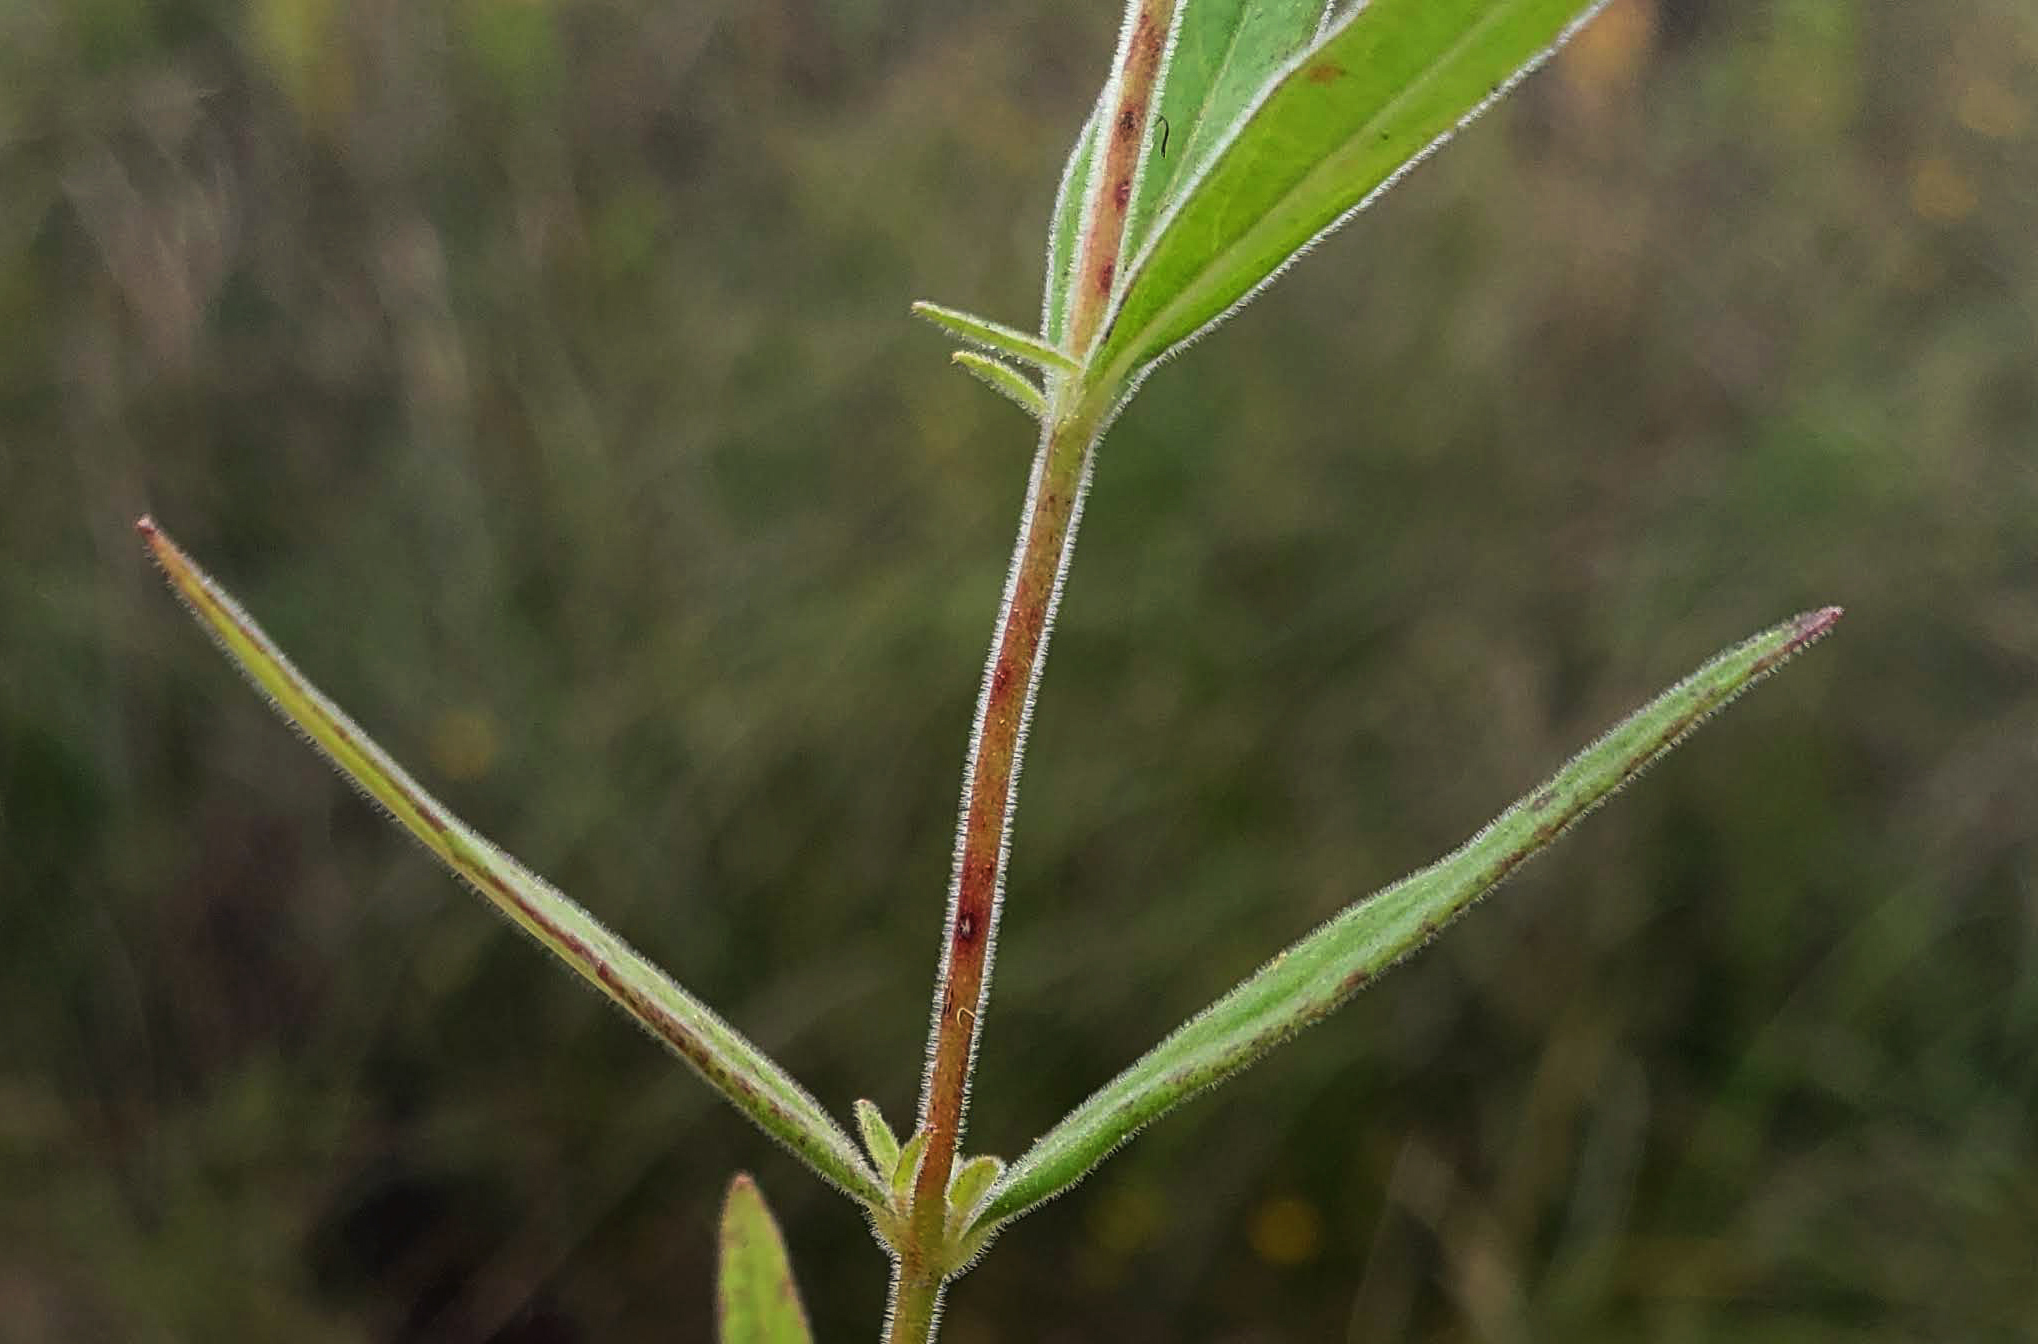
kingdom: Plantae
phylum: Tracheophyta
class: Magnoliopsida
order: Myrtales
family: Onagraceae
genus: Epilobium
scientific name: Epilobium densum
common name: Downy willowherb
